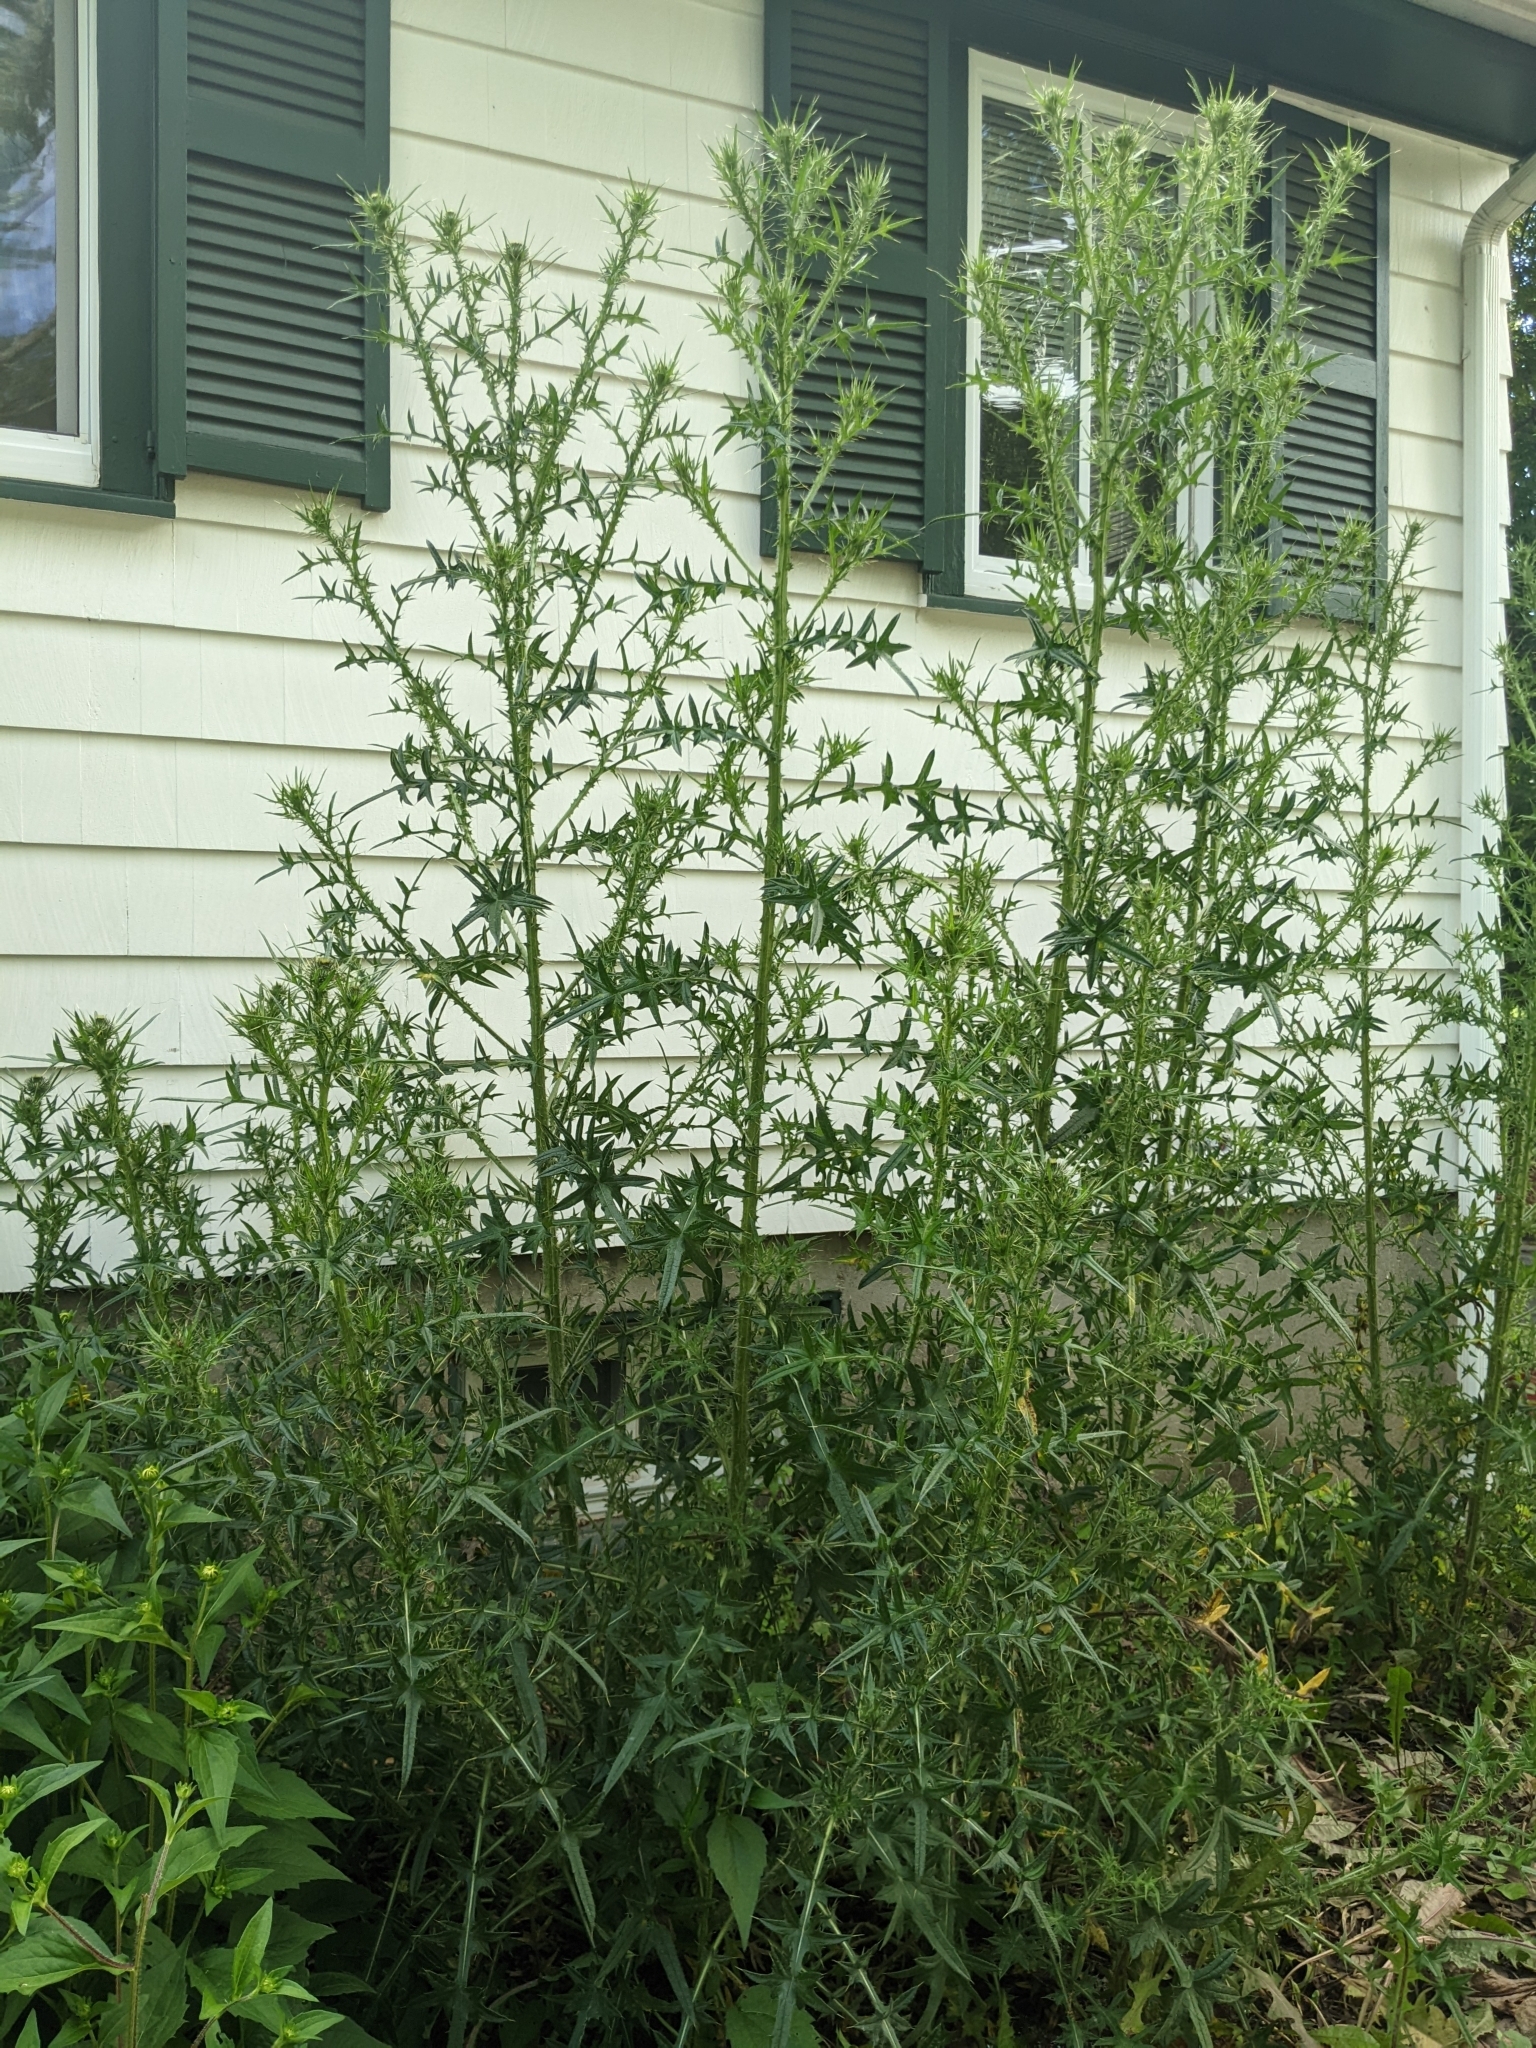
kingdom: Plantae
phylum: Tracheophyta
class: Magnoliopsida
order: Asterales
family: Asteraceae
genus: Cirsium
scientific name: Cirsium vulgare
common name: Bull thistle
